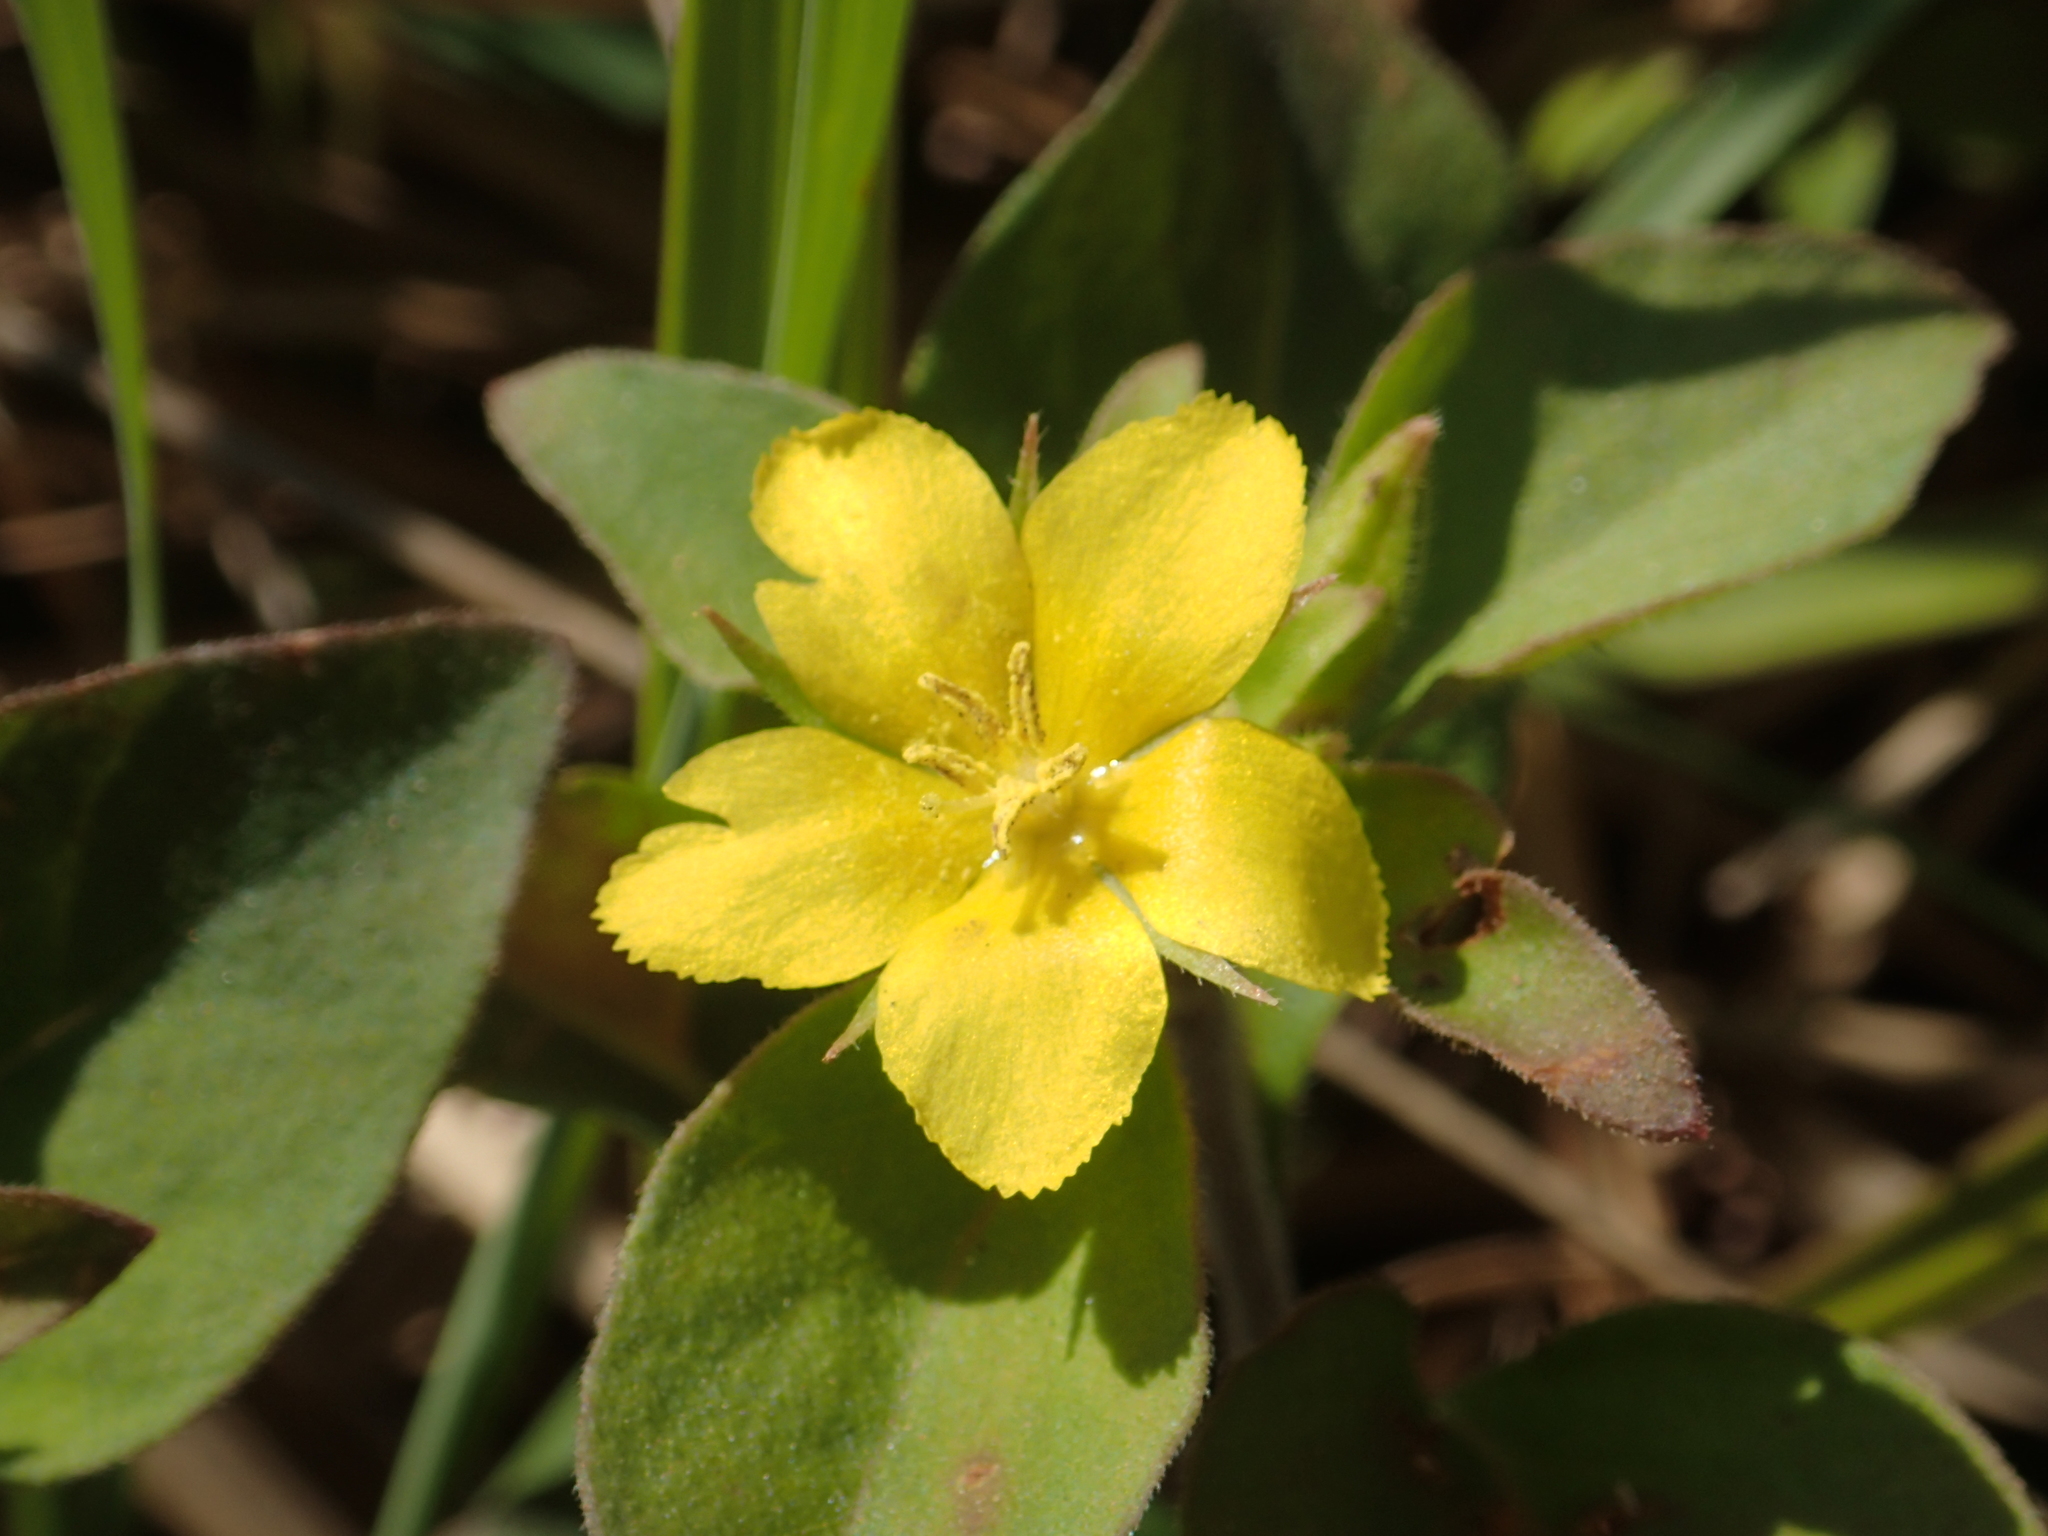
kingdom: Plantae
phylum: Tracheophyta
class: Magnoliopsida
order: Ericales
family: Primulaceae
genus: Lysimachia
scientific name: Lysimachia remota
